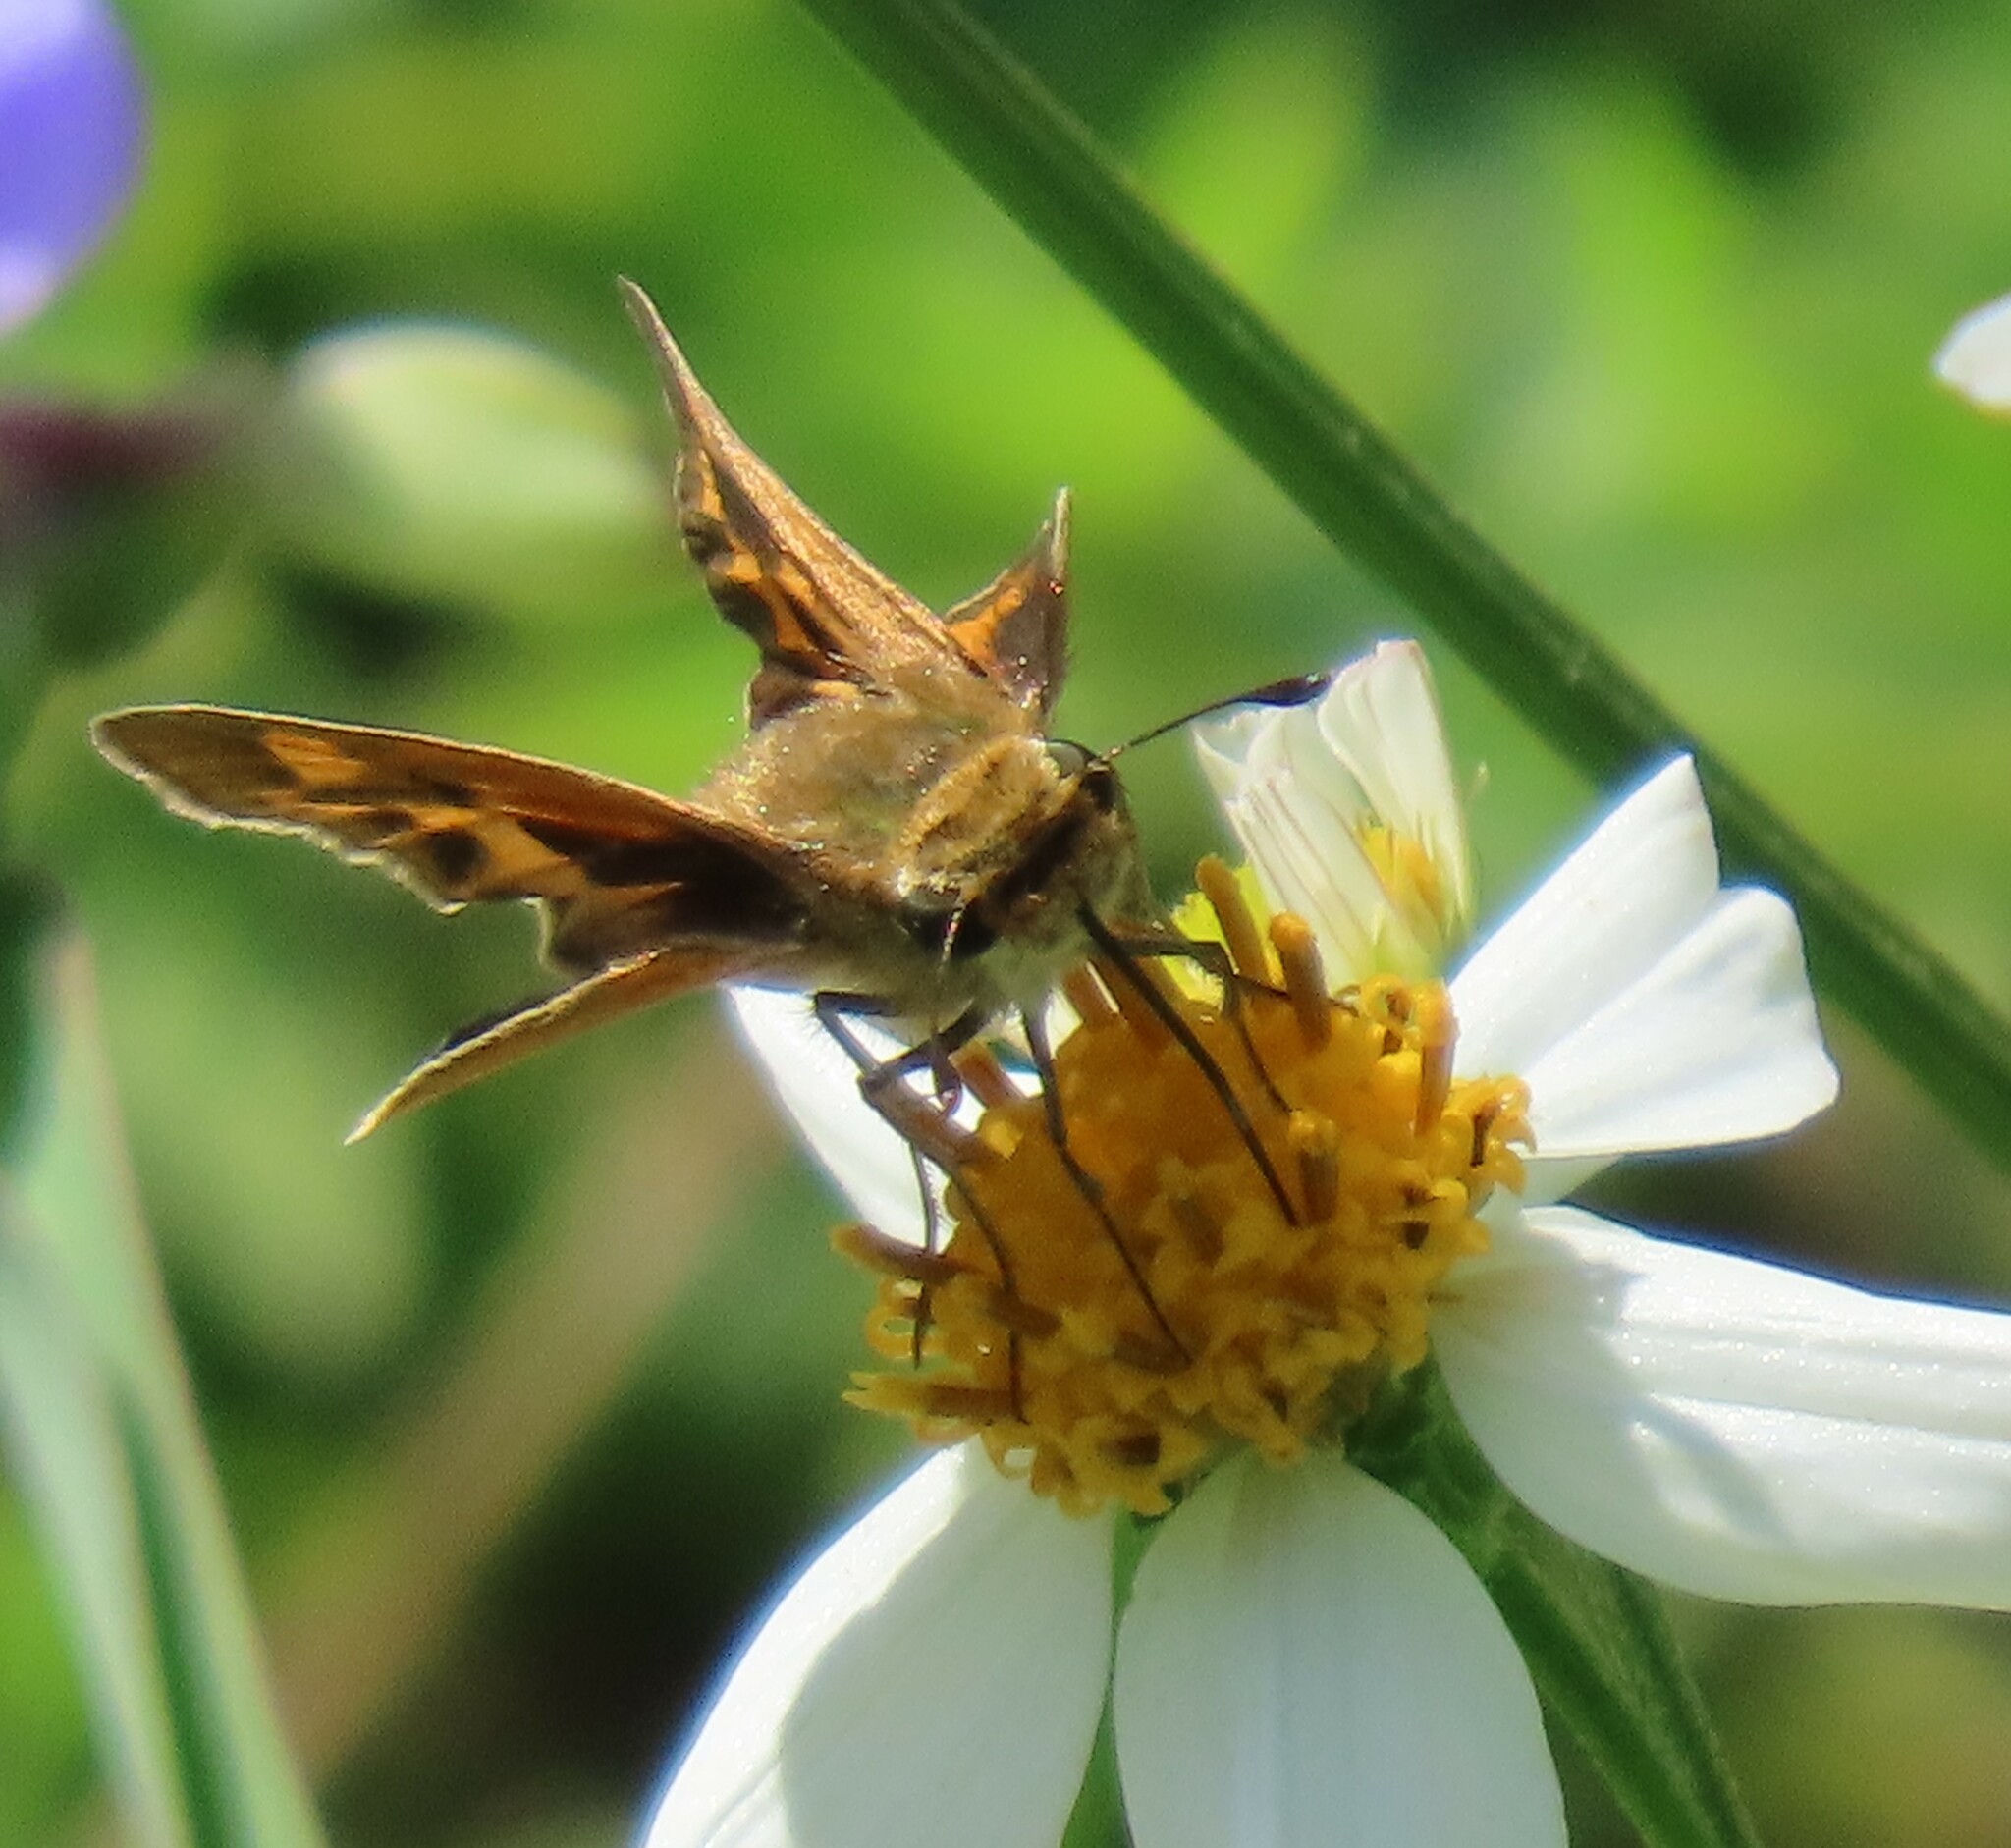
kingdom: Animalia
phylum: Arthropoda
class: Insecta
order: Lepidoptera
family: Hesperiidae
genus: Hylephila
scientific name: Hylephila phyleus
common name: Fiery skipper
